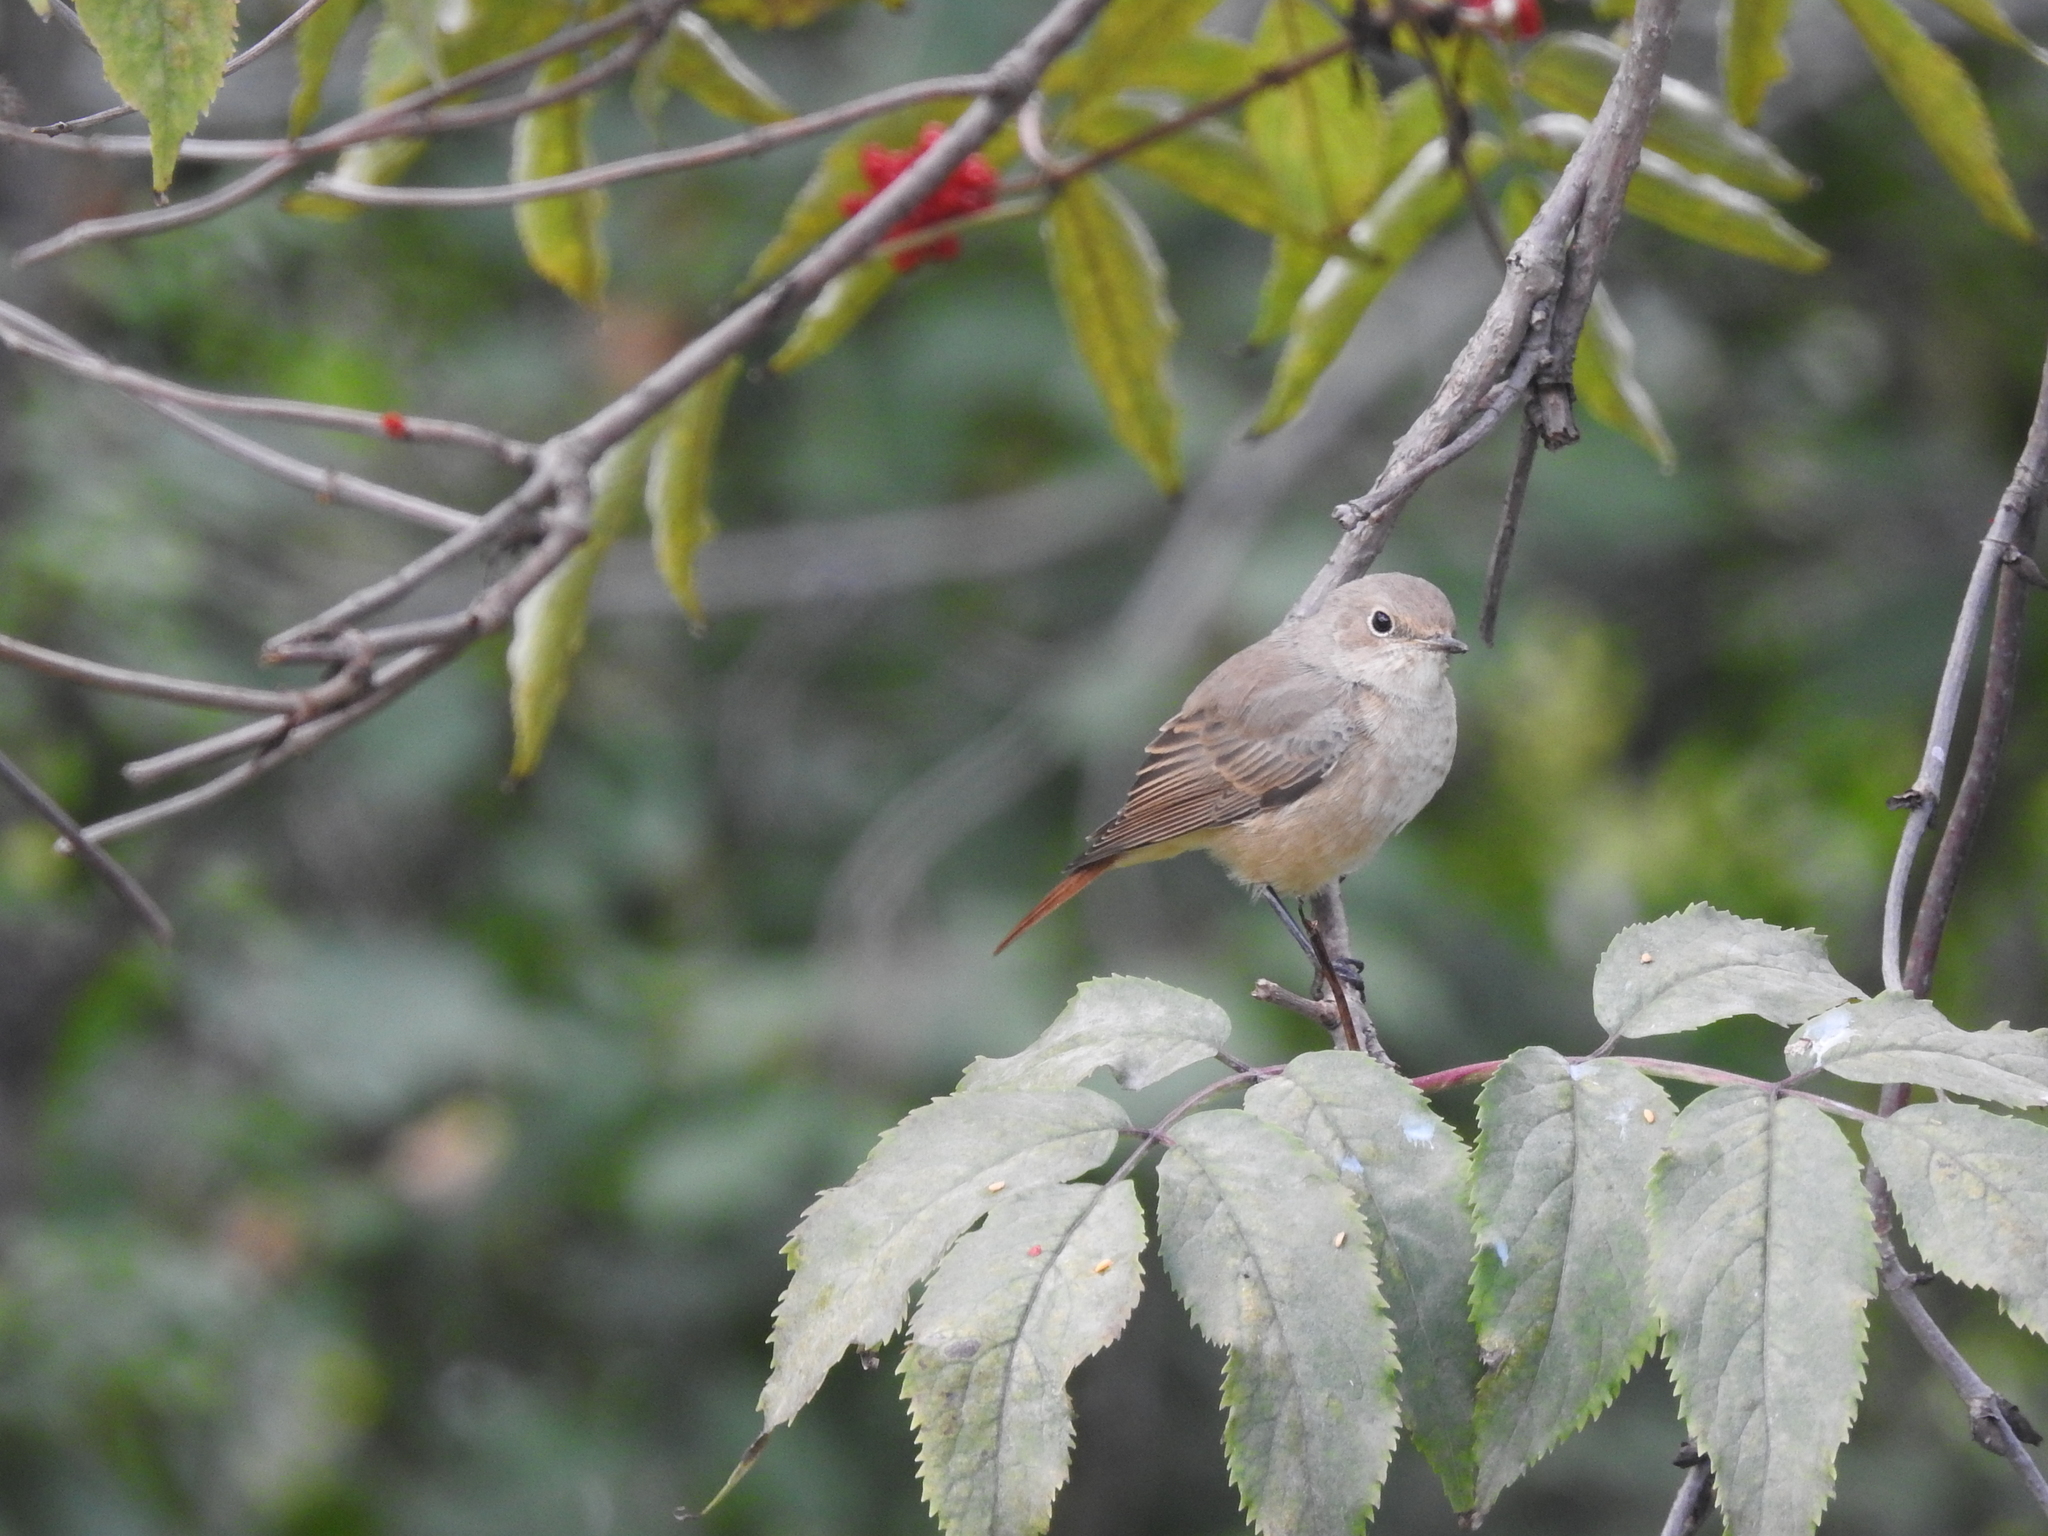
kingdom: Animalia
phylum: Chordata
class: Aves
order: Passeriformes
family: Muscicapidae
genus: Phoenicurus
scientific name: Phoenicurus phoenicurus
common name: Common redstart
